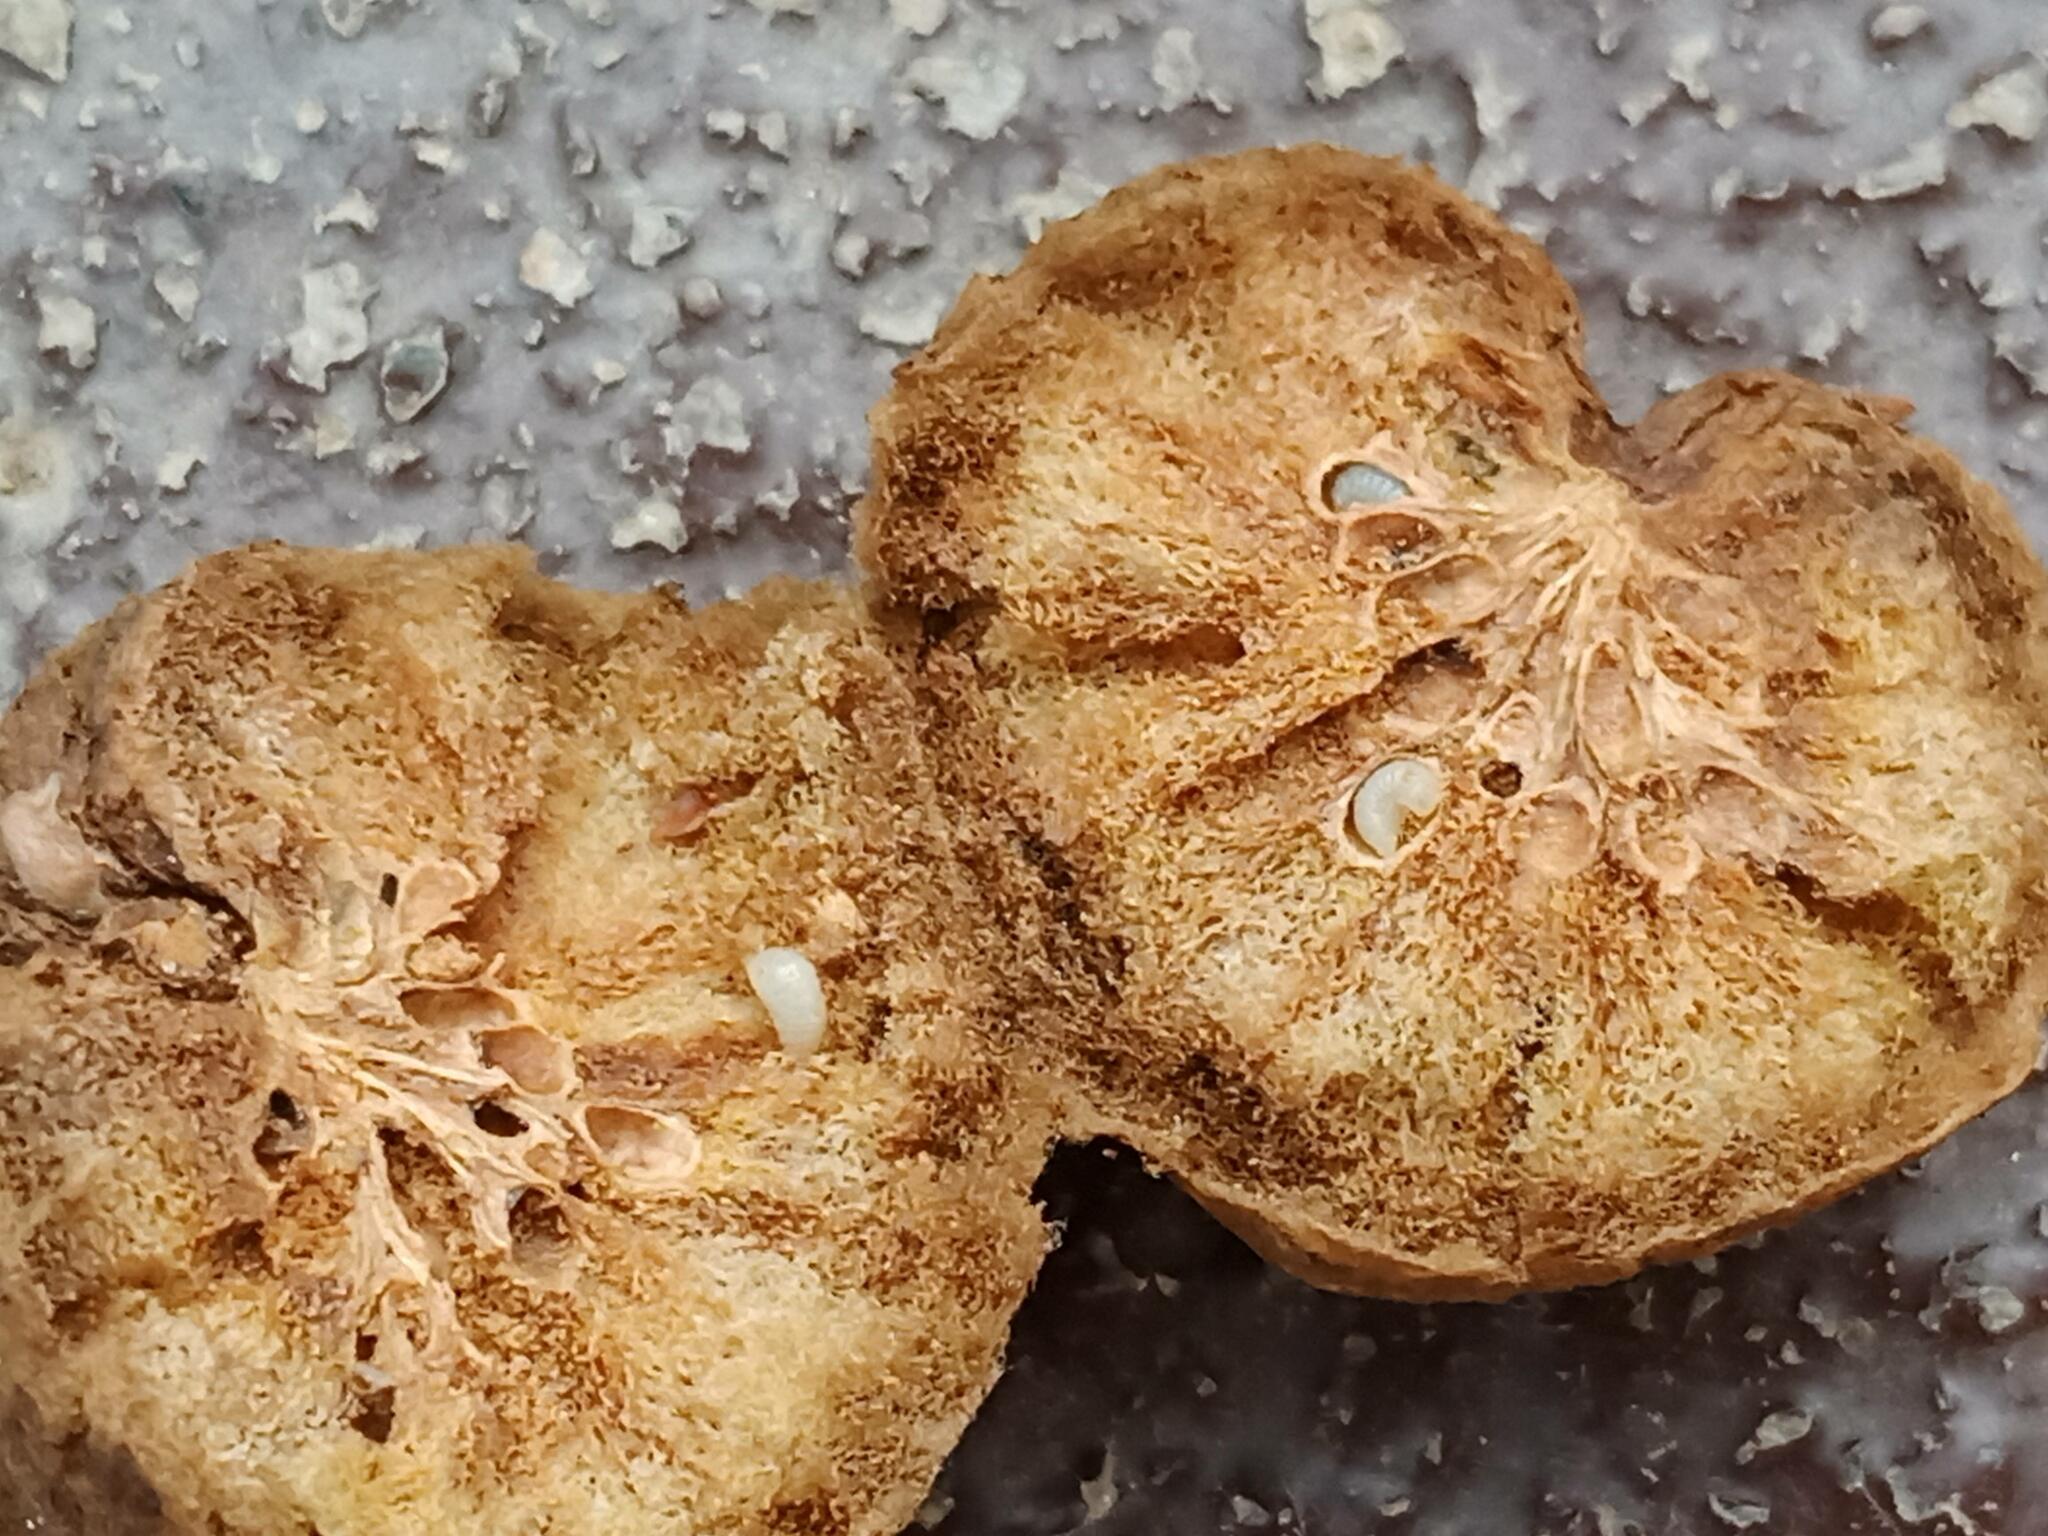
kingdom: Animalia
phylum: Arthropoda
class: Insecta
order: Hymenoptera
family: Cynipidae
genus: Biorhiza
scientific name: Biorhiza pallida
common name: Oak apple
